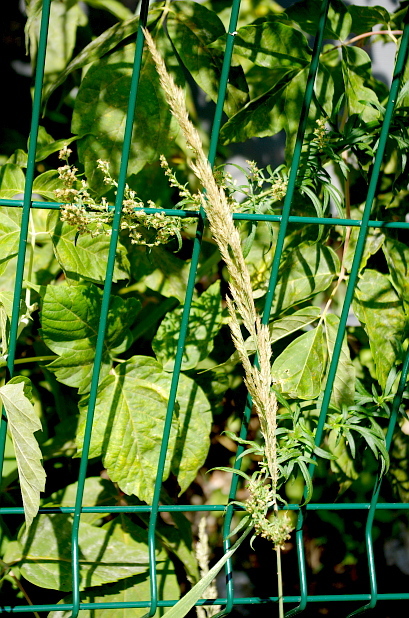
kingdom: Plantae
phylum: Tracheophyta
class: Liliopsida
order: Poales
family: Poaceae
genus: Calamagrostis
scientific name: Calamagrostis epigejos
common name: Wood small-reed
